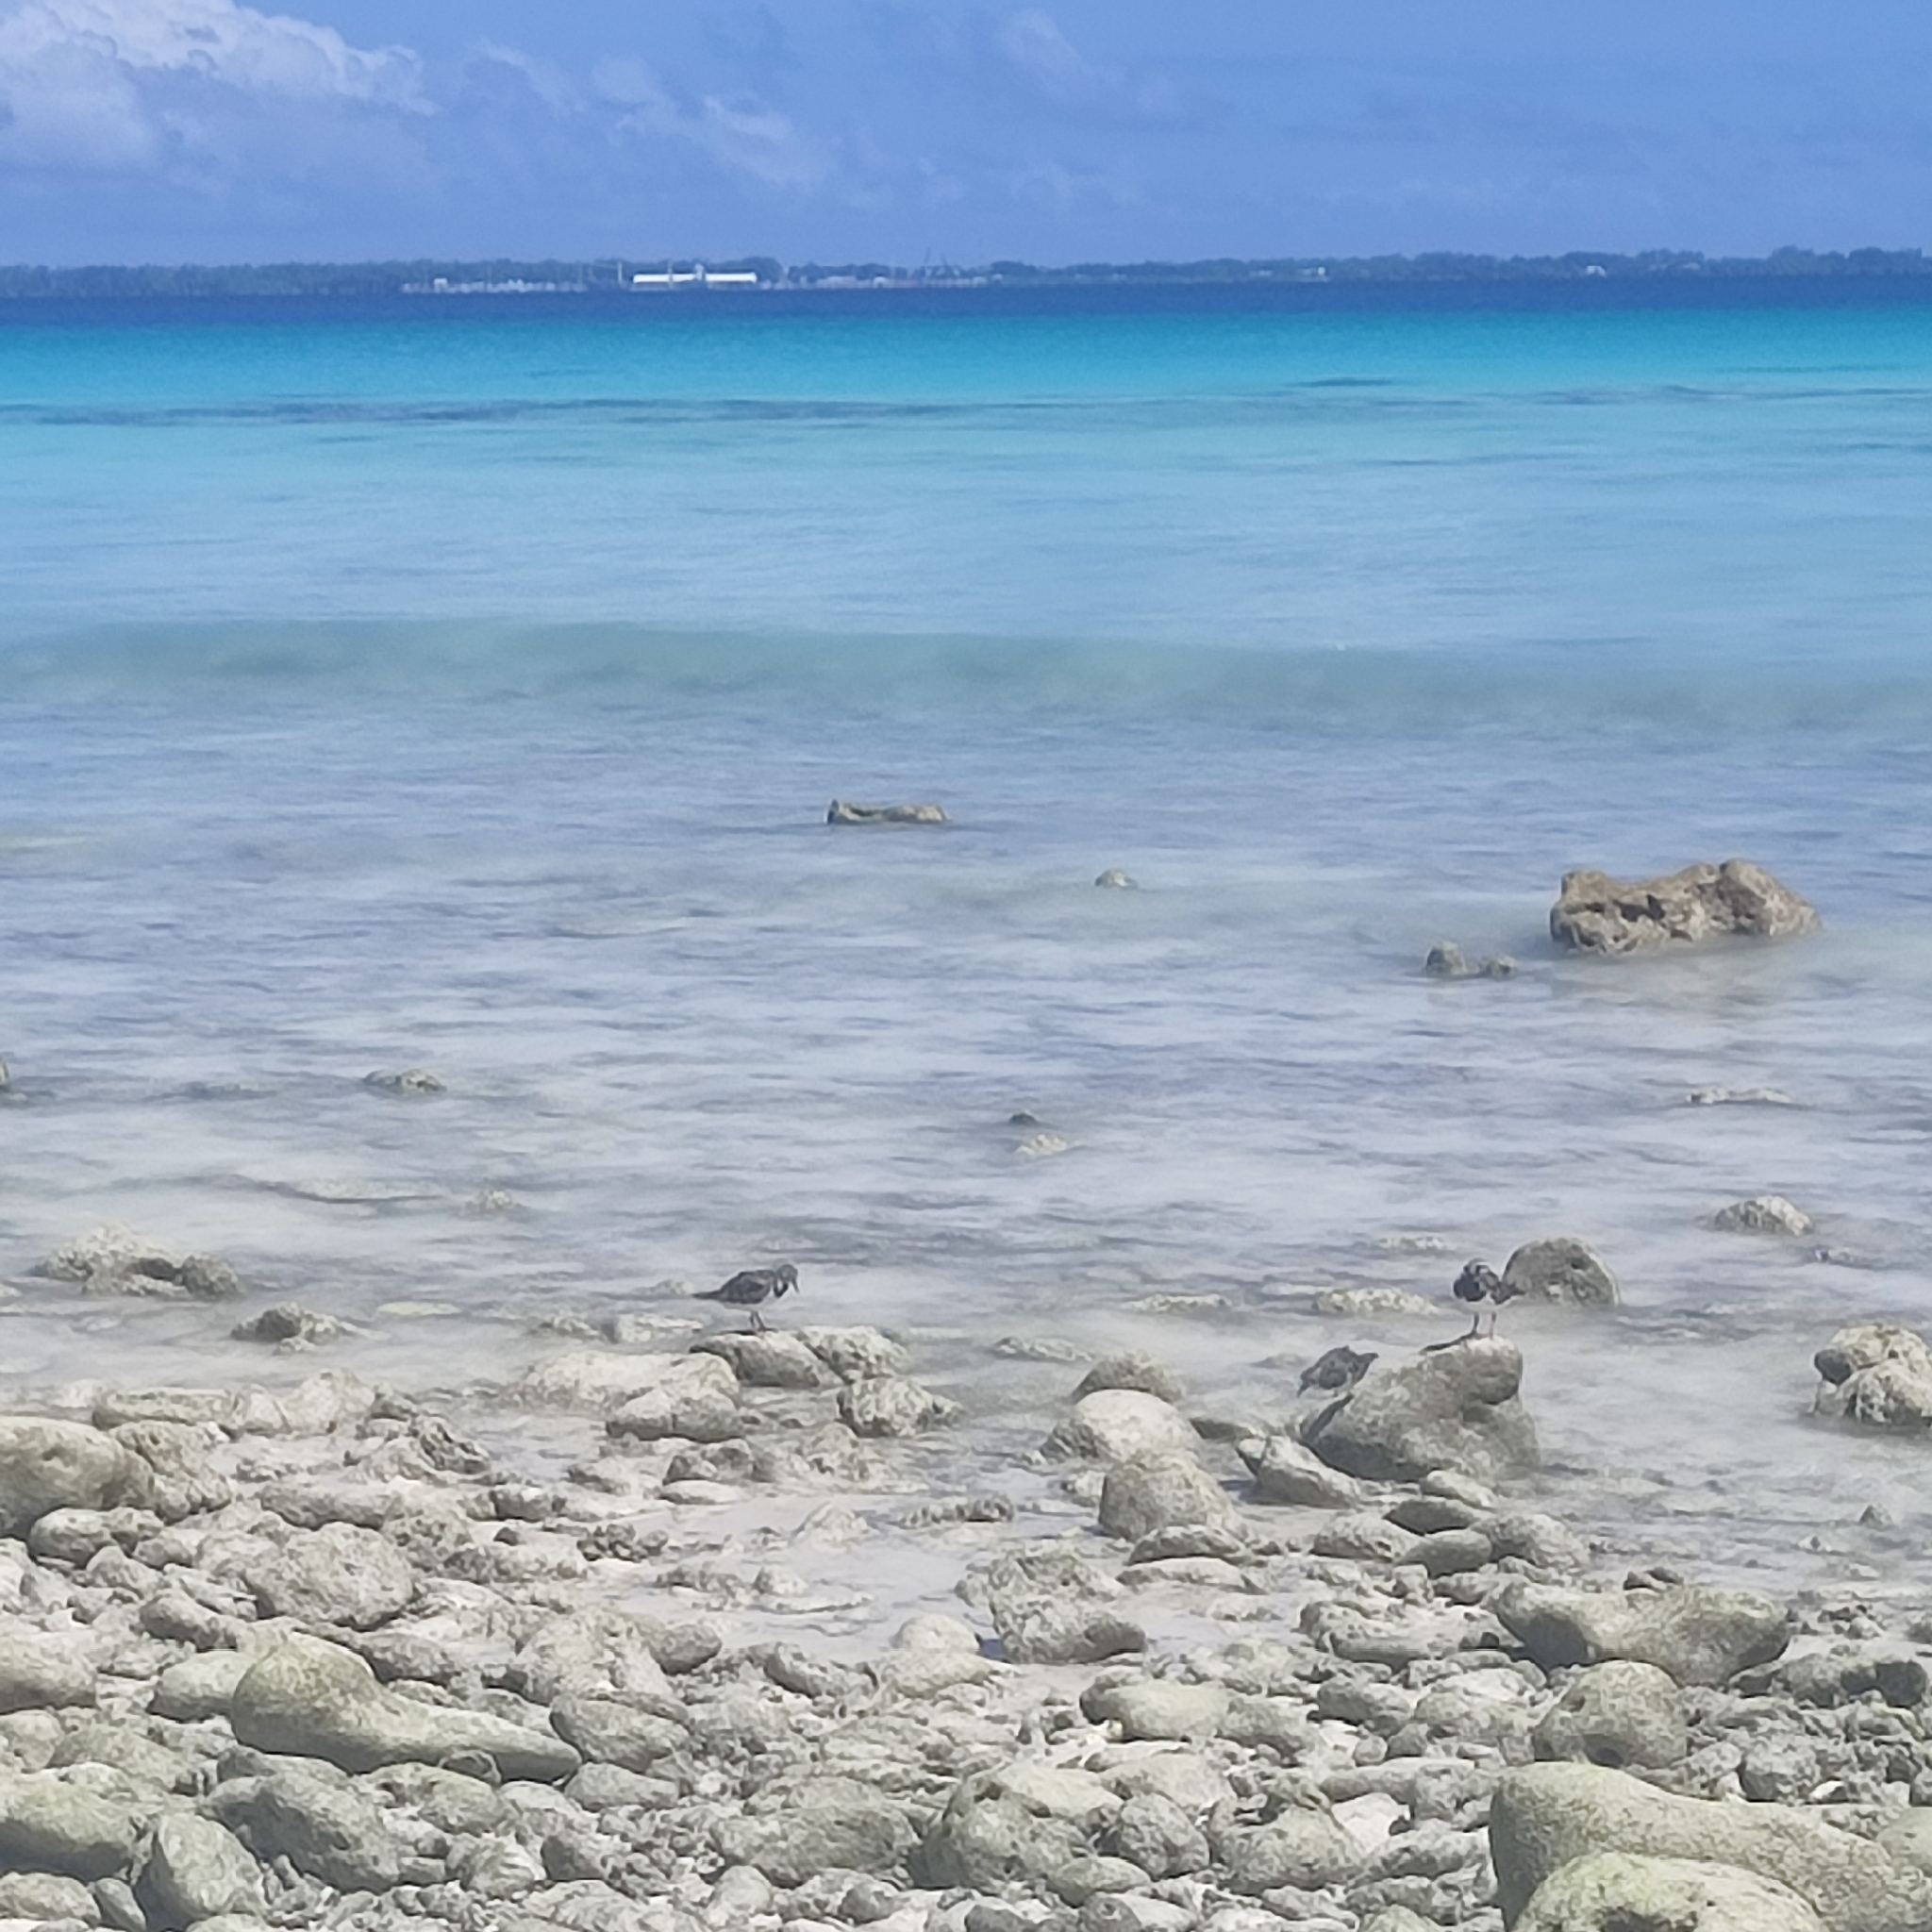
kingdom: Animalia
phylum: Chordata
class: Aves
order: Charadriiformes
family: Scolopacidae
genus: Arenaria
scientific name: Arenaria interpres
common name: Ruddy turnstone
